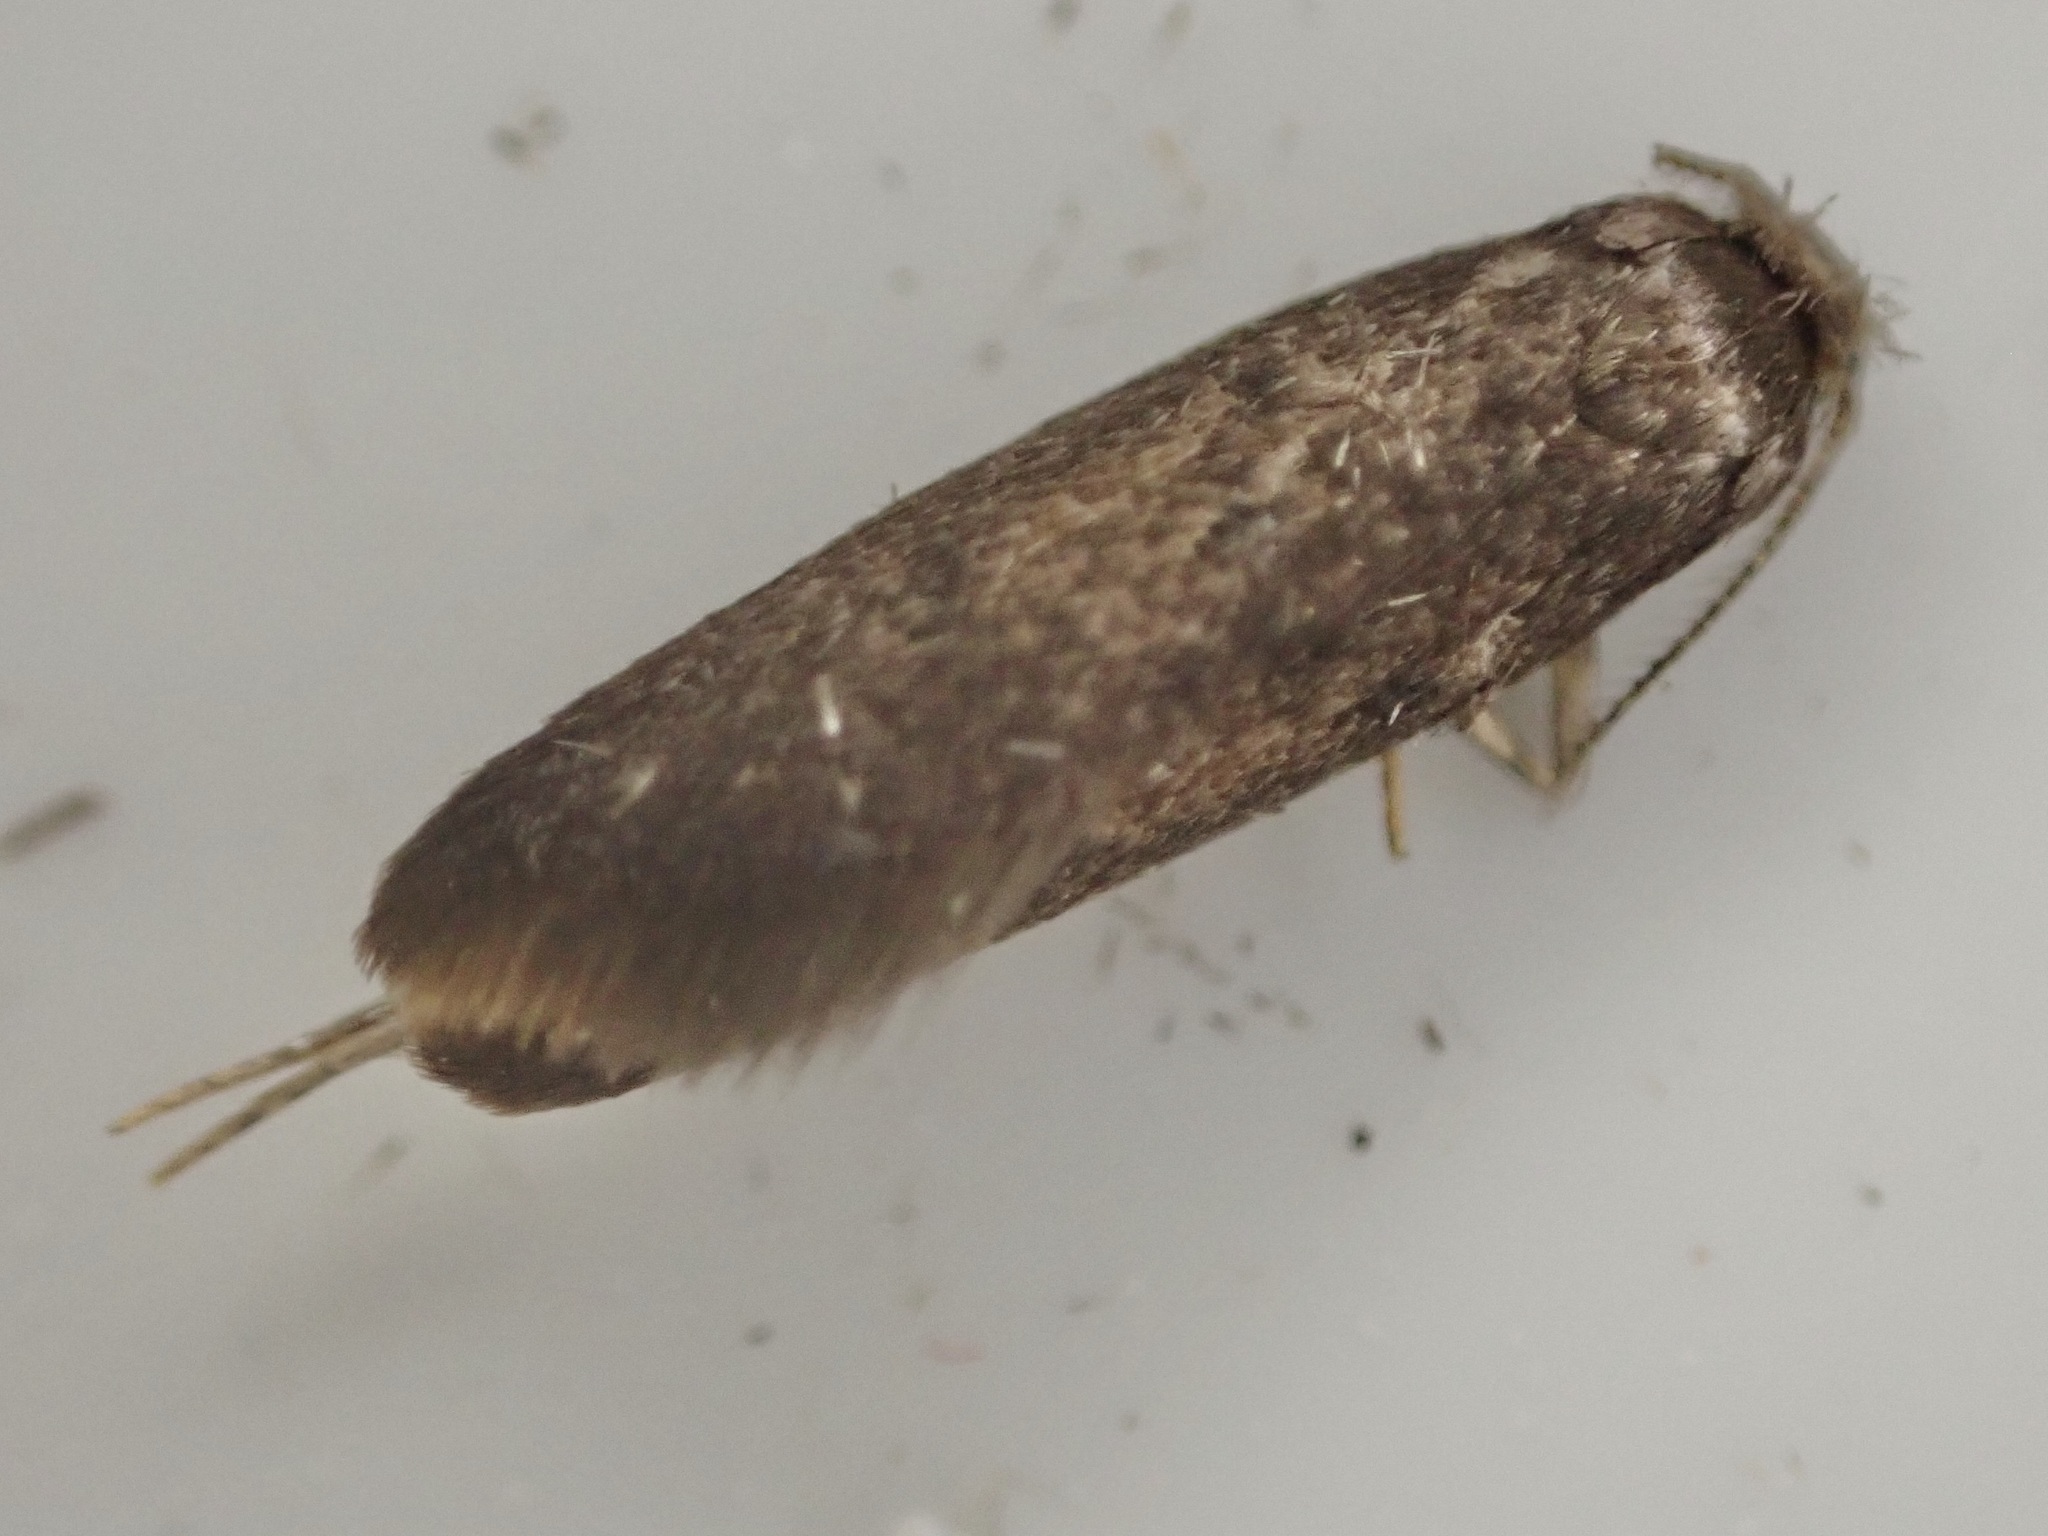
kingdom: Animalia
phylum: Arthropoda
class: Insecta
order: Lepidoptera
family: Tineidae
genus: Opogona
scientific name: Opogona omoscopa
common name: Moth
